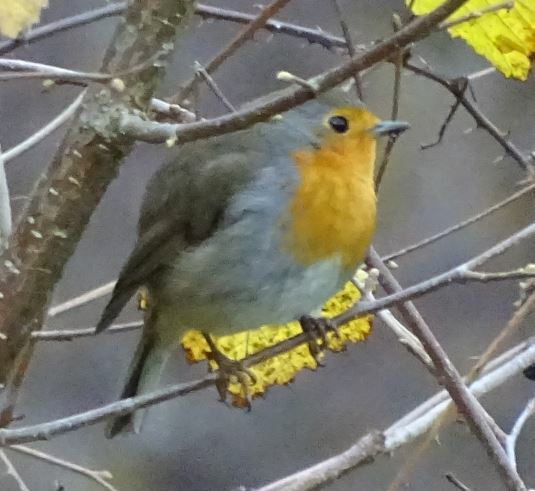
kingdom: Animalia
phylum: Chordata
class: Aves
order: Passeriformes
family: Muscicapidae
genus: Erithacus
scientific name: Erithacus rubecula
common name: European robin
